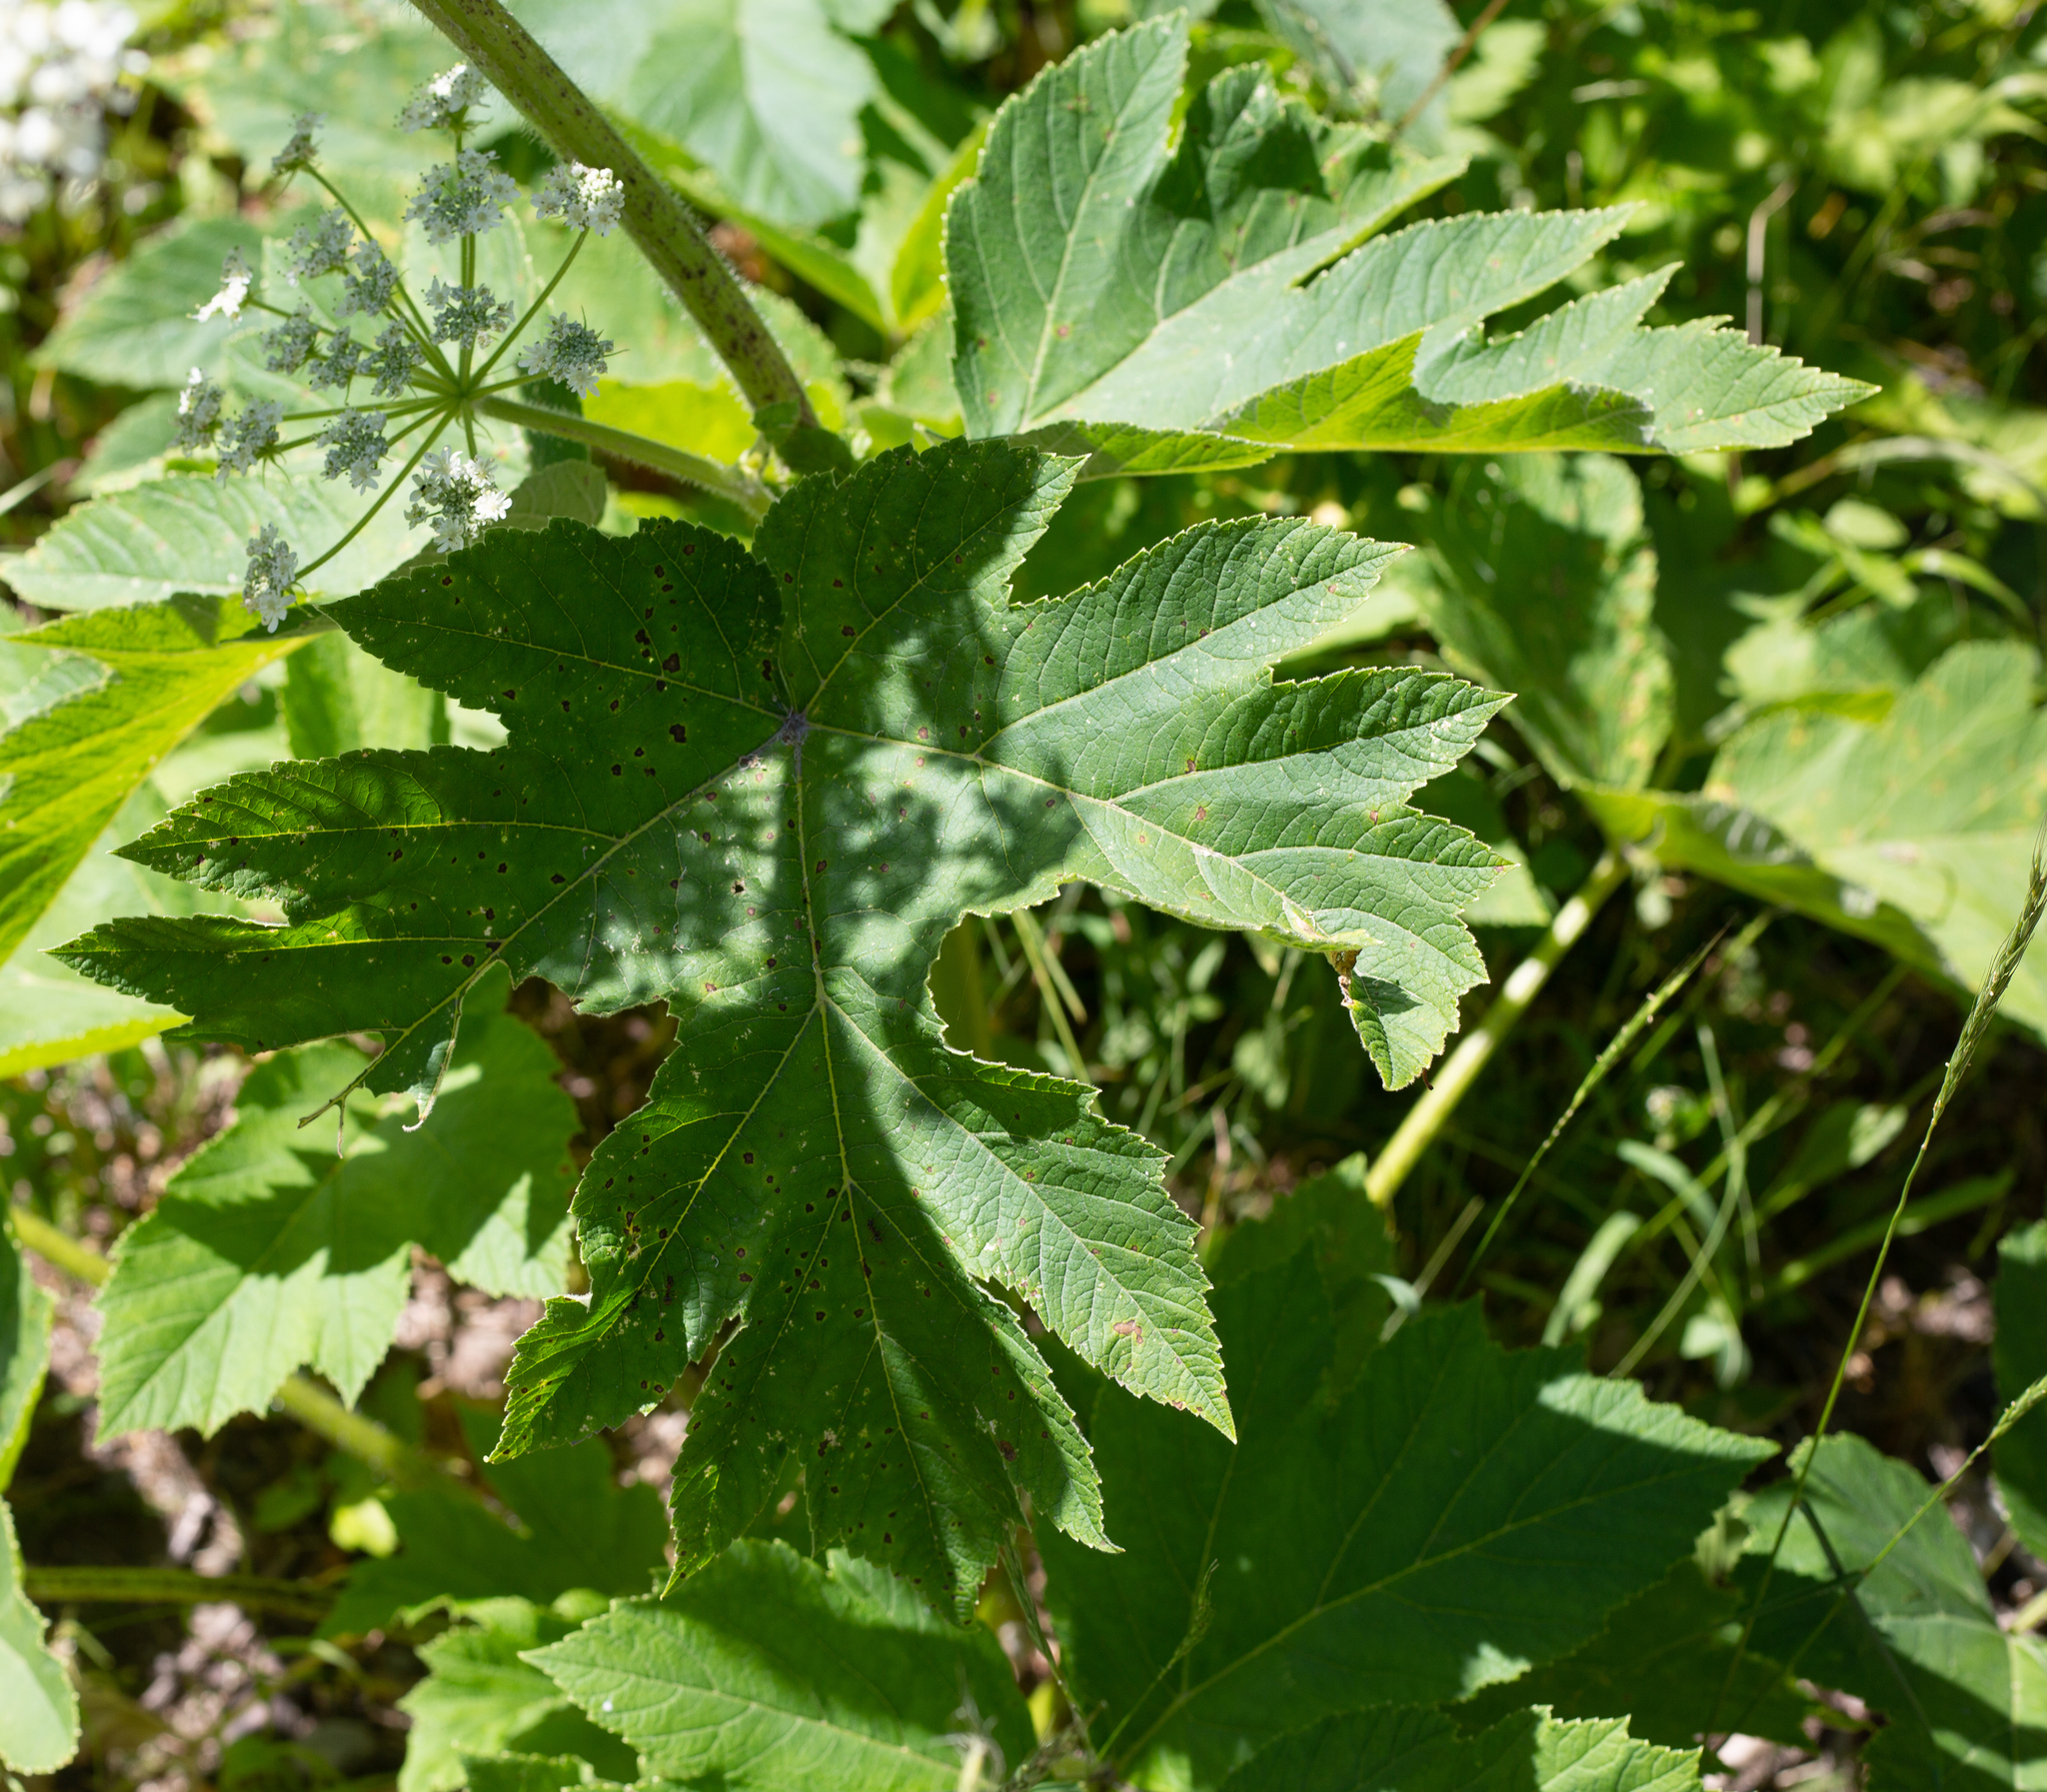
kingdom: Plantae
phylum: Tracheophyta
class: Magnoliopsida
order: Apiales
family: Apiaceae
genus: Heracleum
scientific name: Heracleum maximum
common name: American cow parsnip
